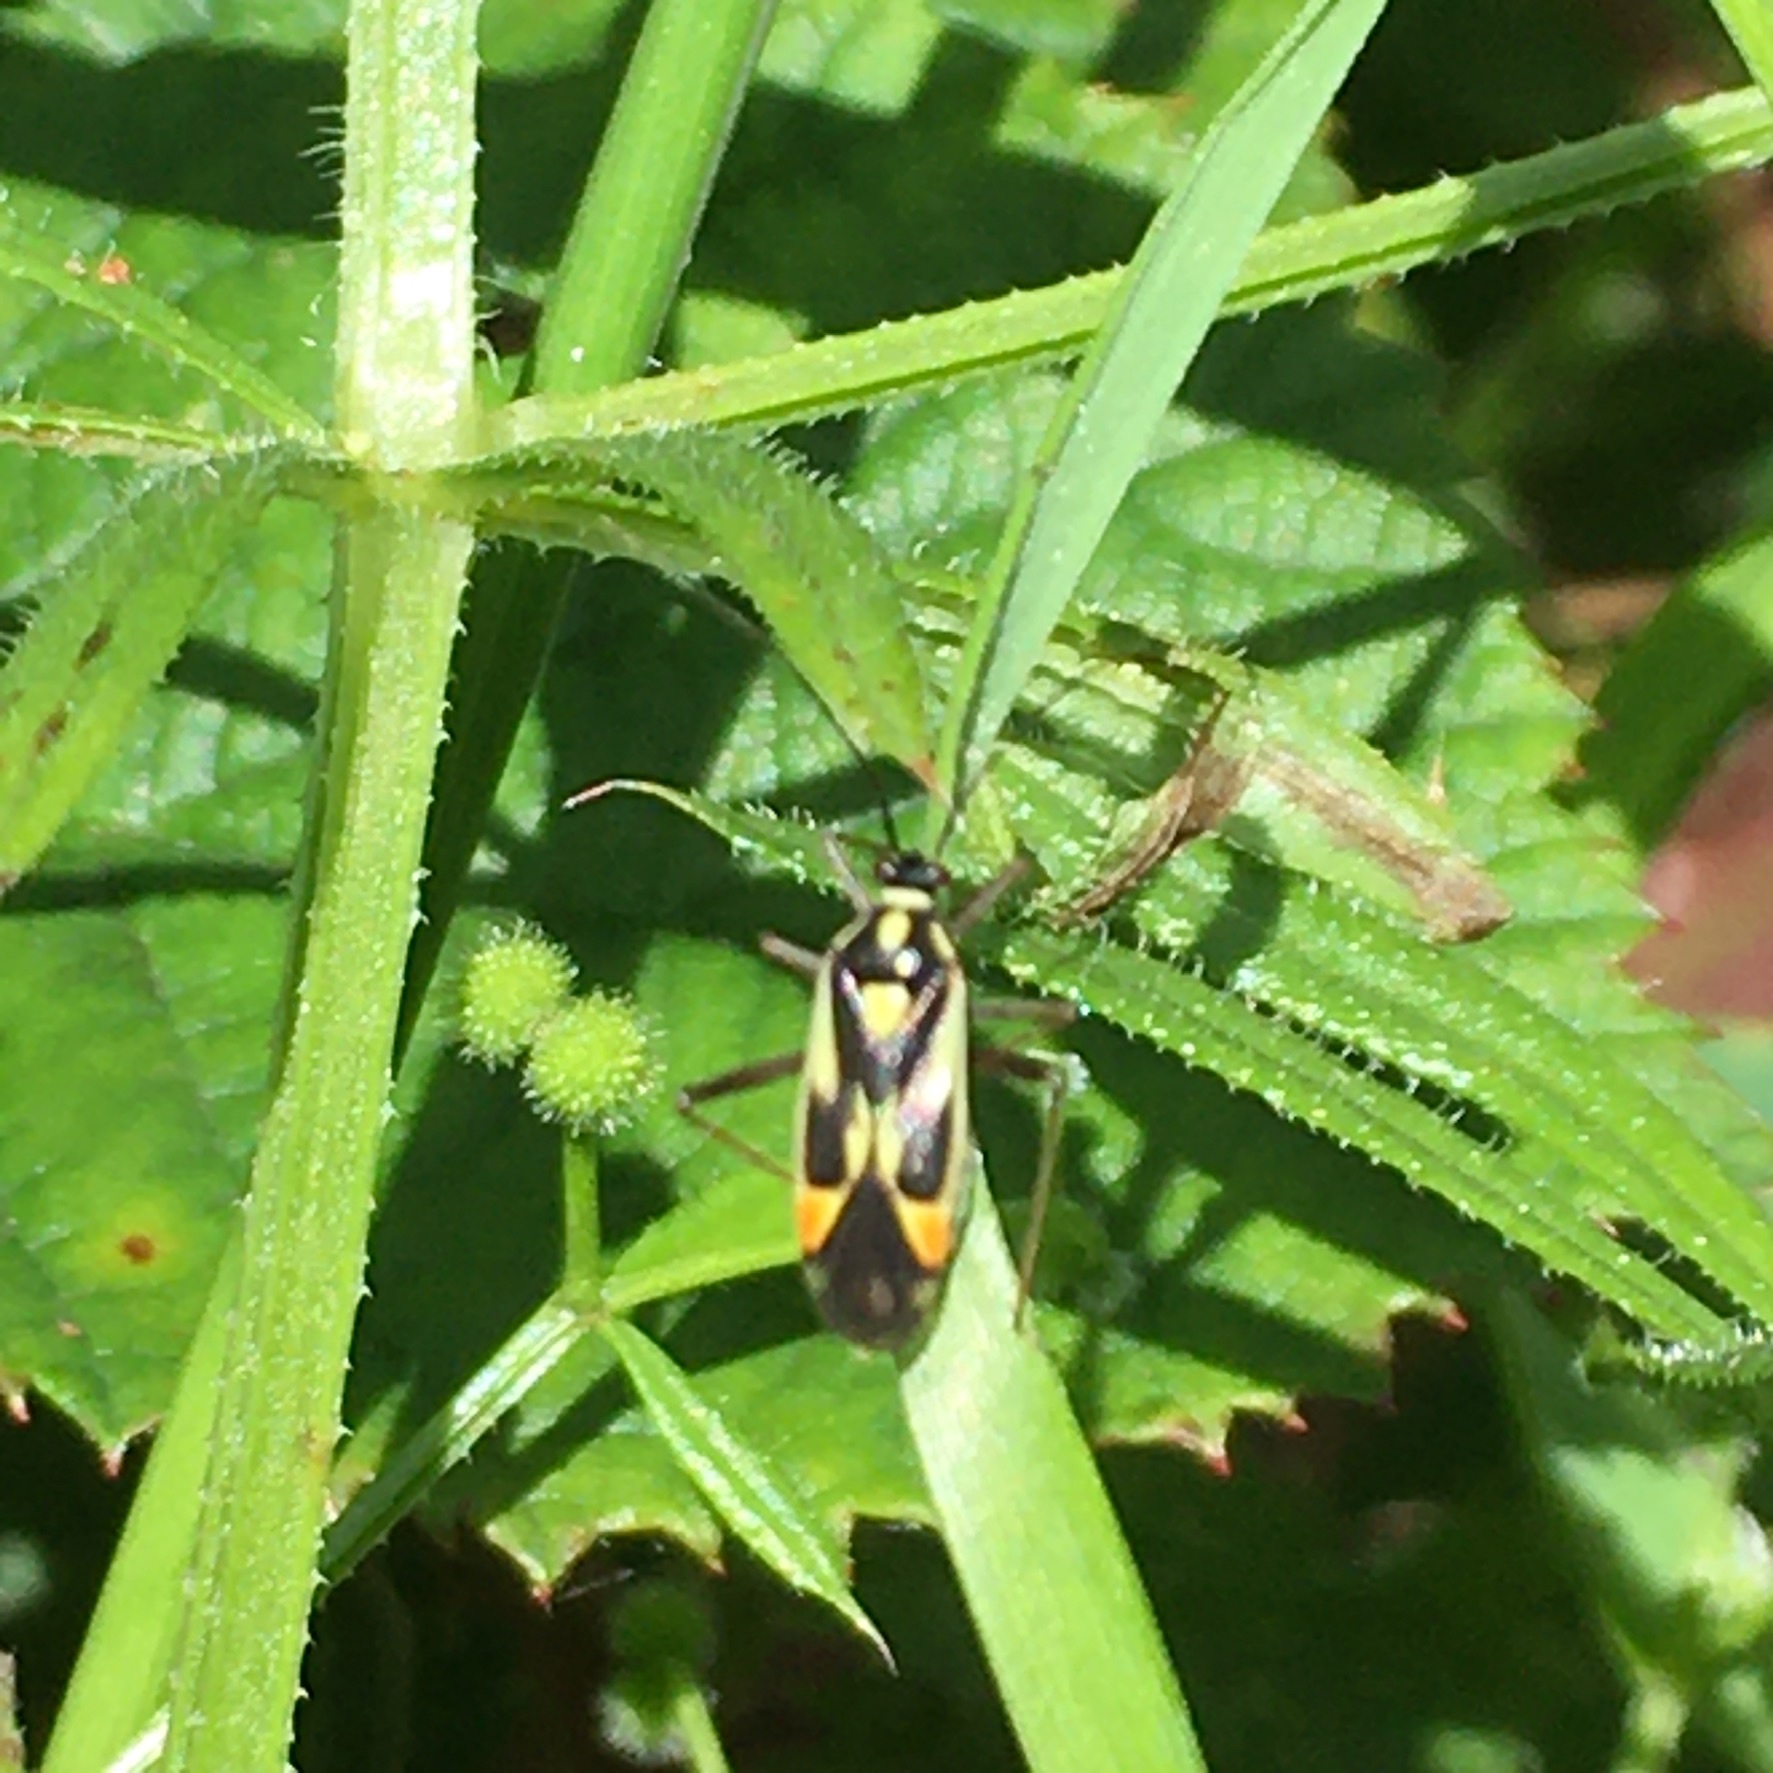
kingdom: Animalia
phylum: Arthropoda
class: Insecta
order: Hemiptera
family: Miridae
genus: Grypocoris
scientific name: Grypocoris stysi
